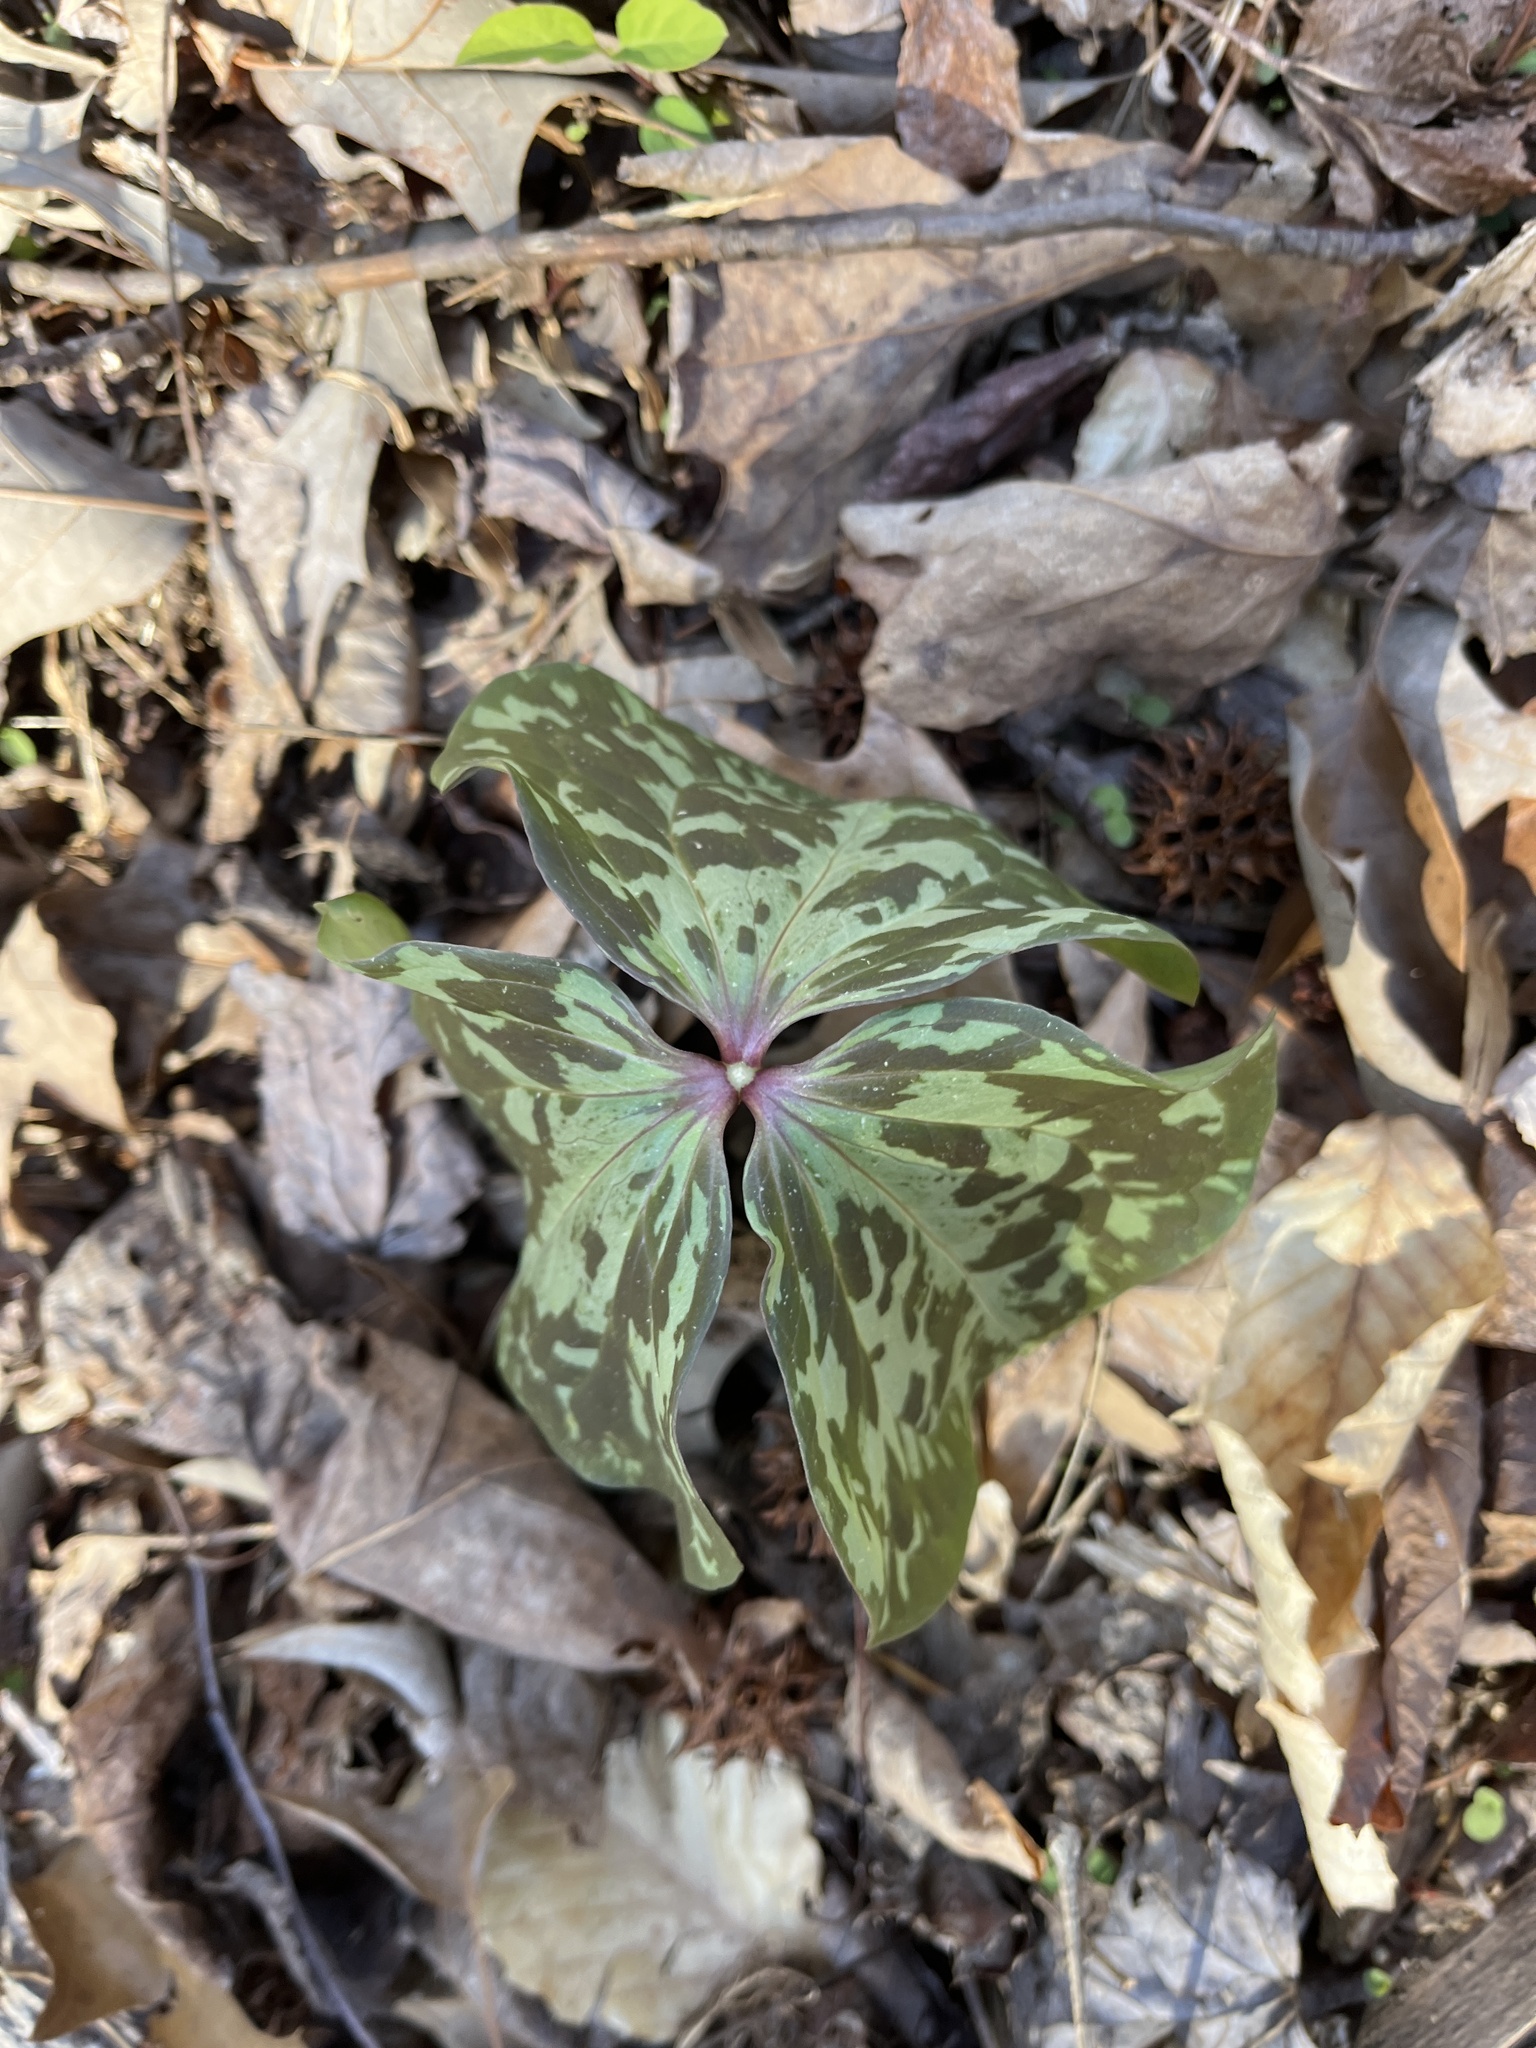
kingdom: Plantae
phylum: Tracheophyta
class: Liliopsida
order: Liliales
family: Melanthiaceae
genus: Trillium
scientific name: Trillium cuneatum
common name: Cuneate trillium
